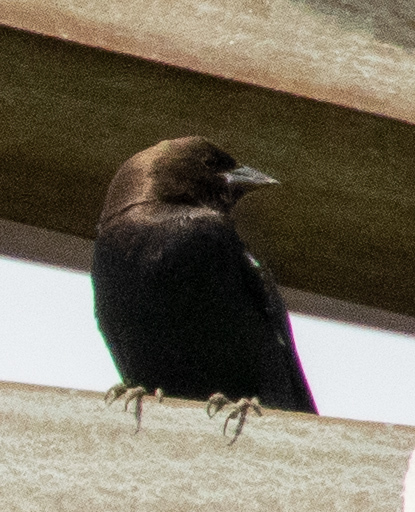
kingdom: Animalia
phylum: Chordata
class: Aves
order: Passeriformes
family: Icteridae
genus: Molothrus
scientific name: Molothrus ater
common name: Brown-headed cowbird
